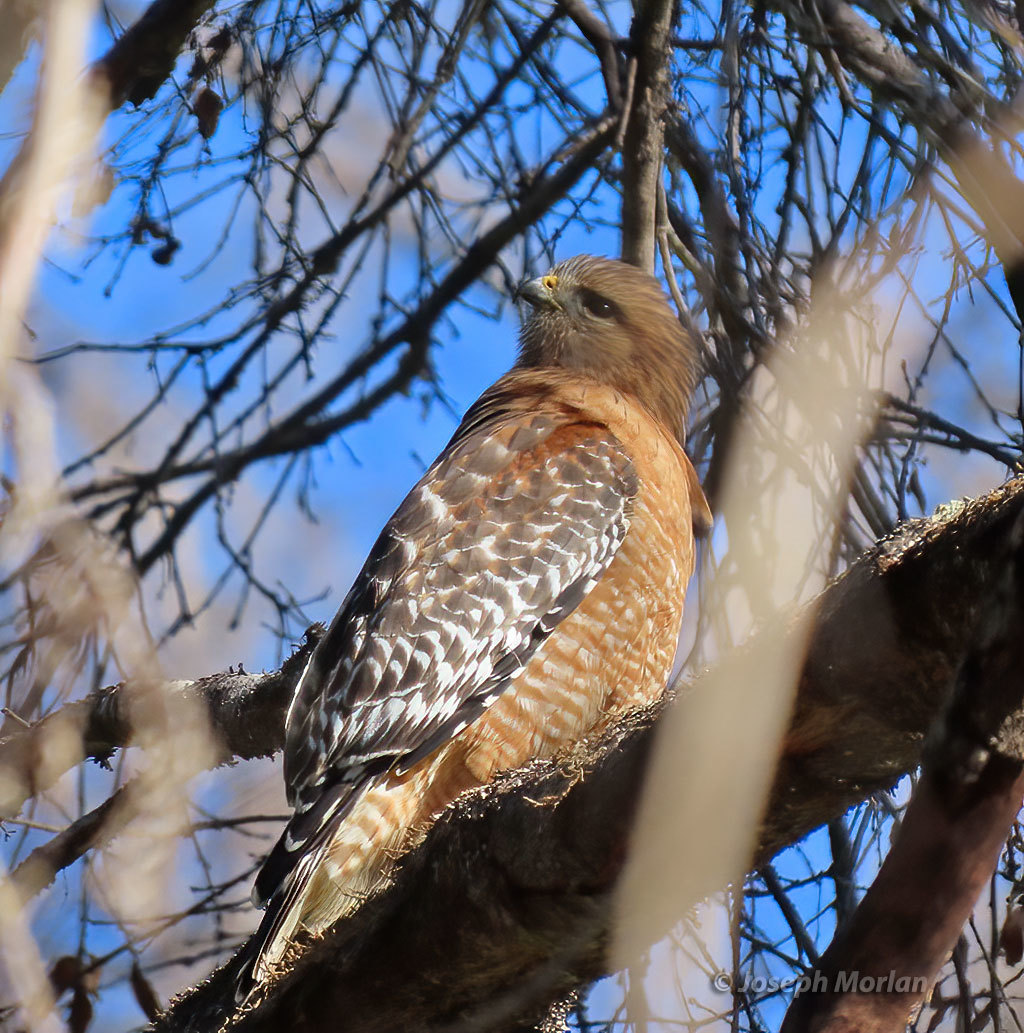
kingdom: Animalia
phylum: Chordata
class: Aves
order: Accipitriformes
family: Accipitridae
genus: Buteo
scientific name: Buteo lineatus
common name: Red-shouldered hawk
